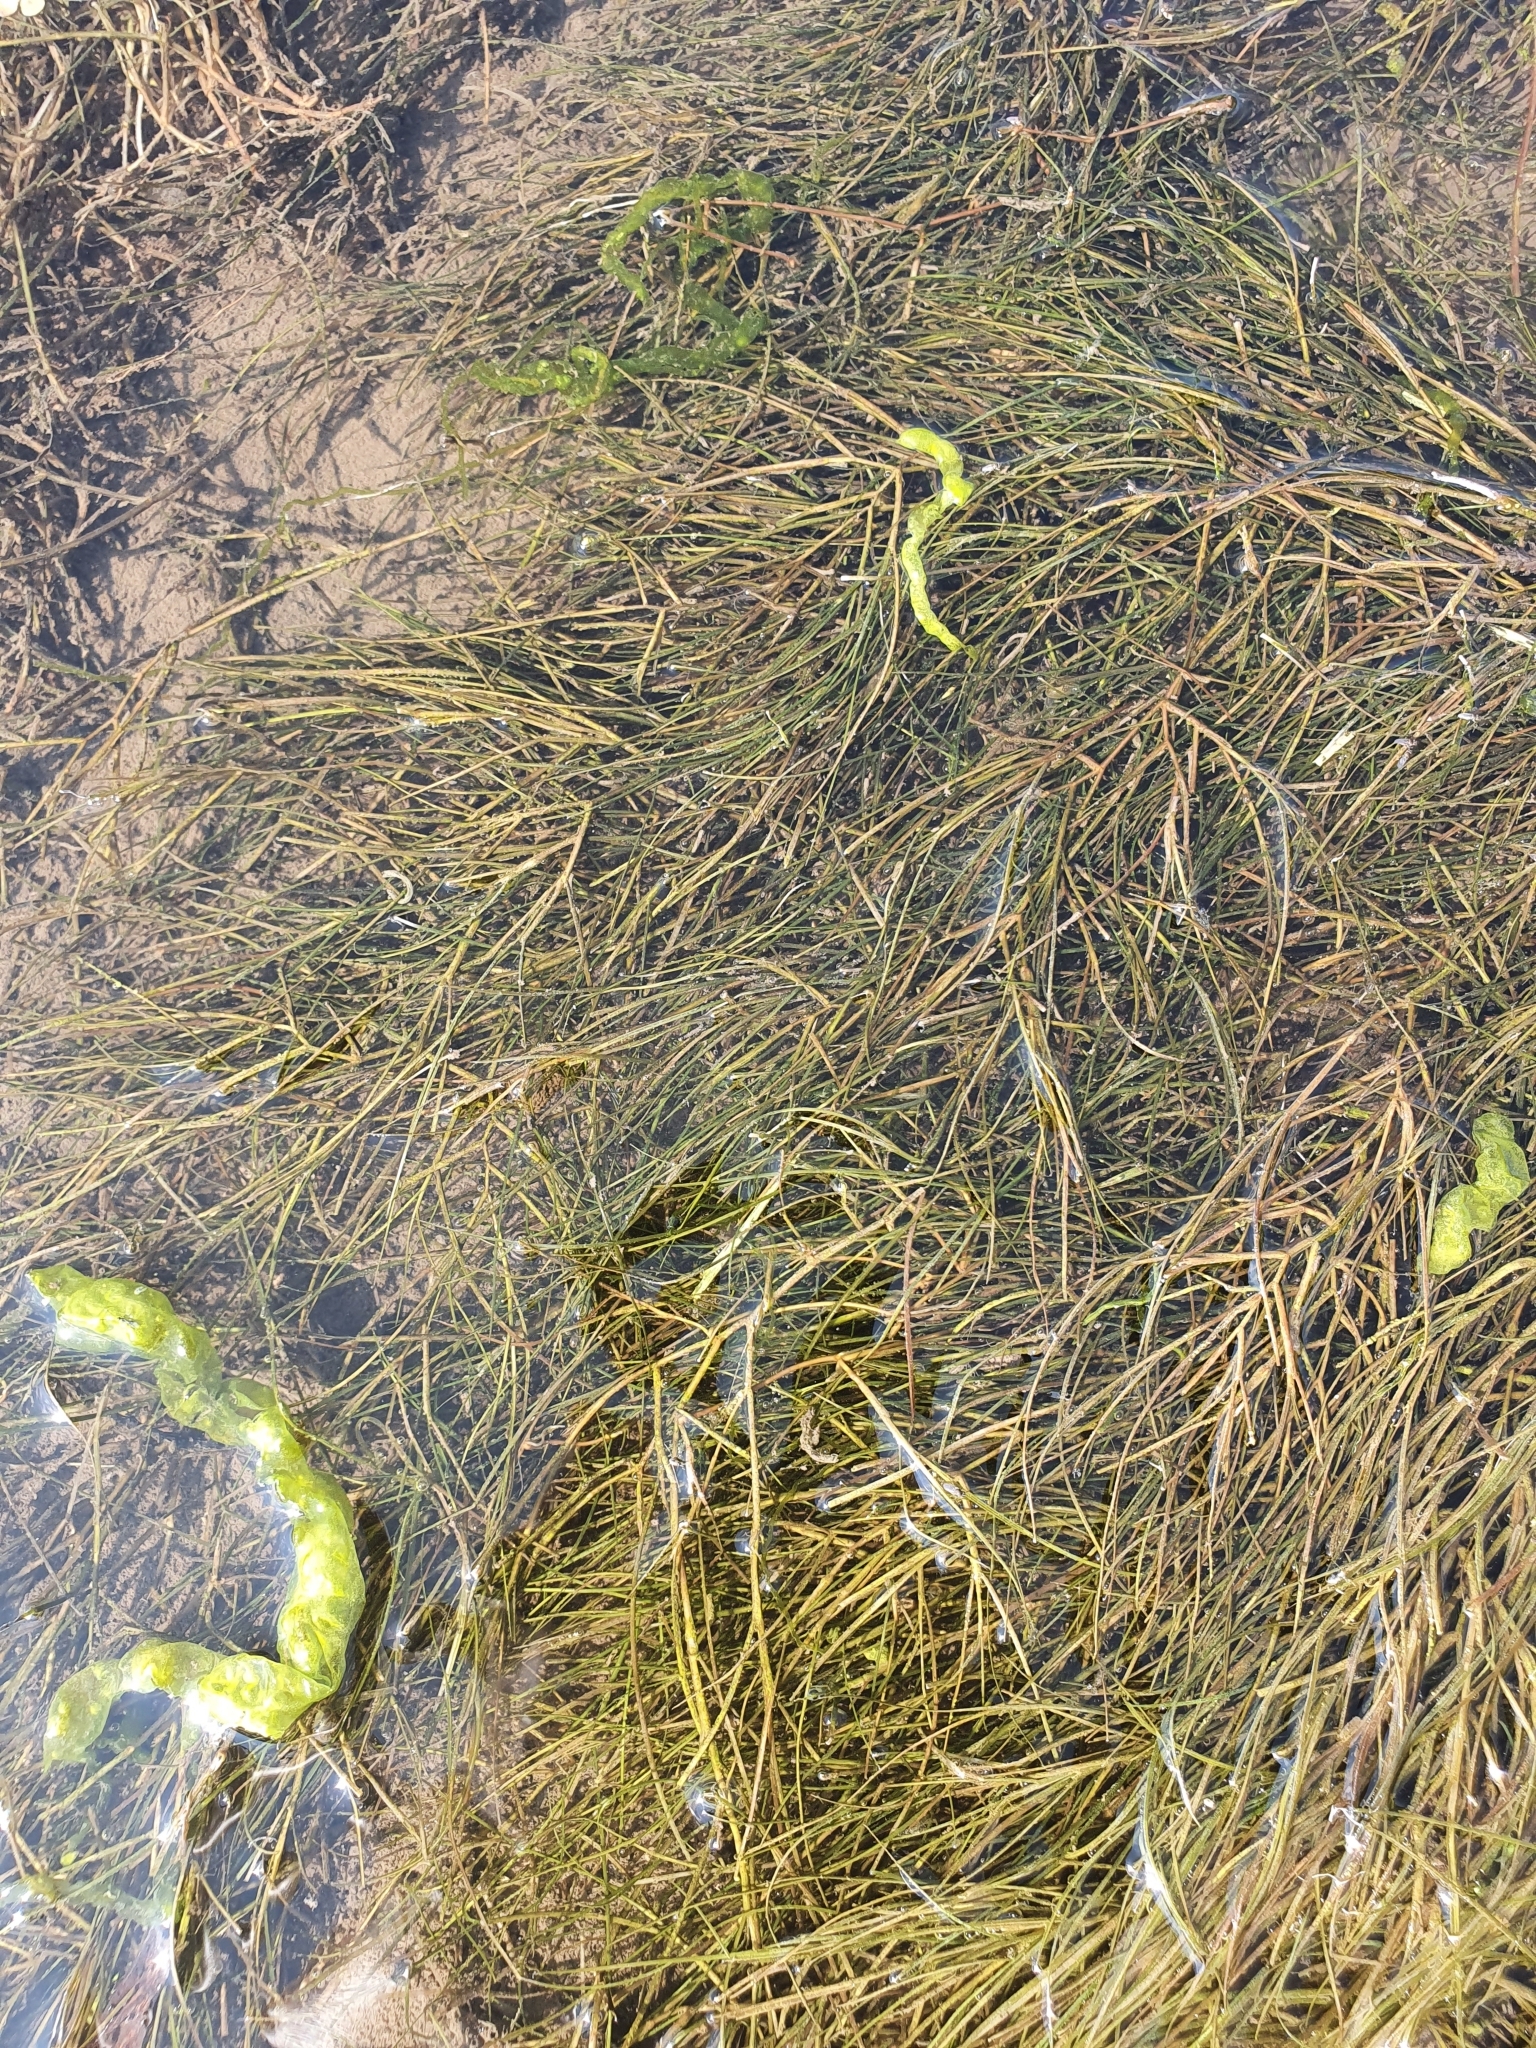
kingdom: Plantae
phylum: Tracheophyta
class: Liliopsida
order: Alismatales
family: Potamogetonaceae
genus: Stuckenia
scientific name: Stuckenia pectinata
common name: Sago pondweed
